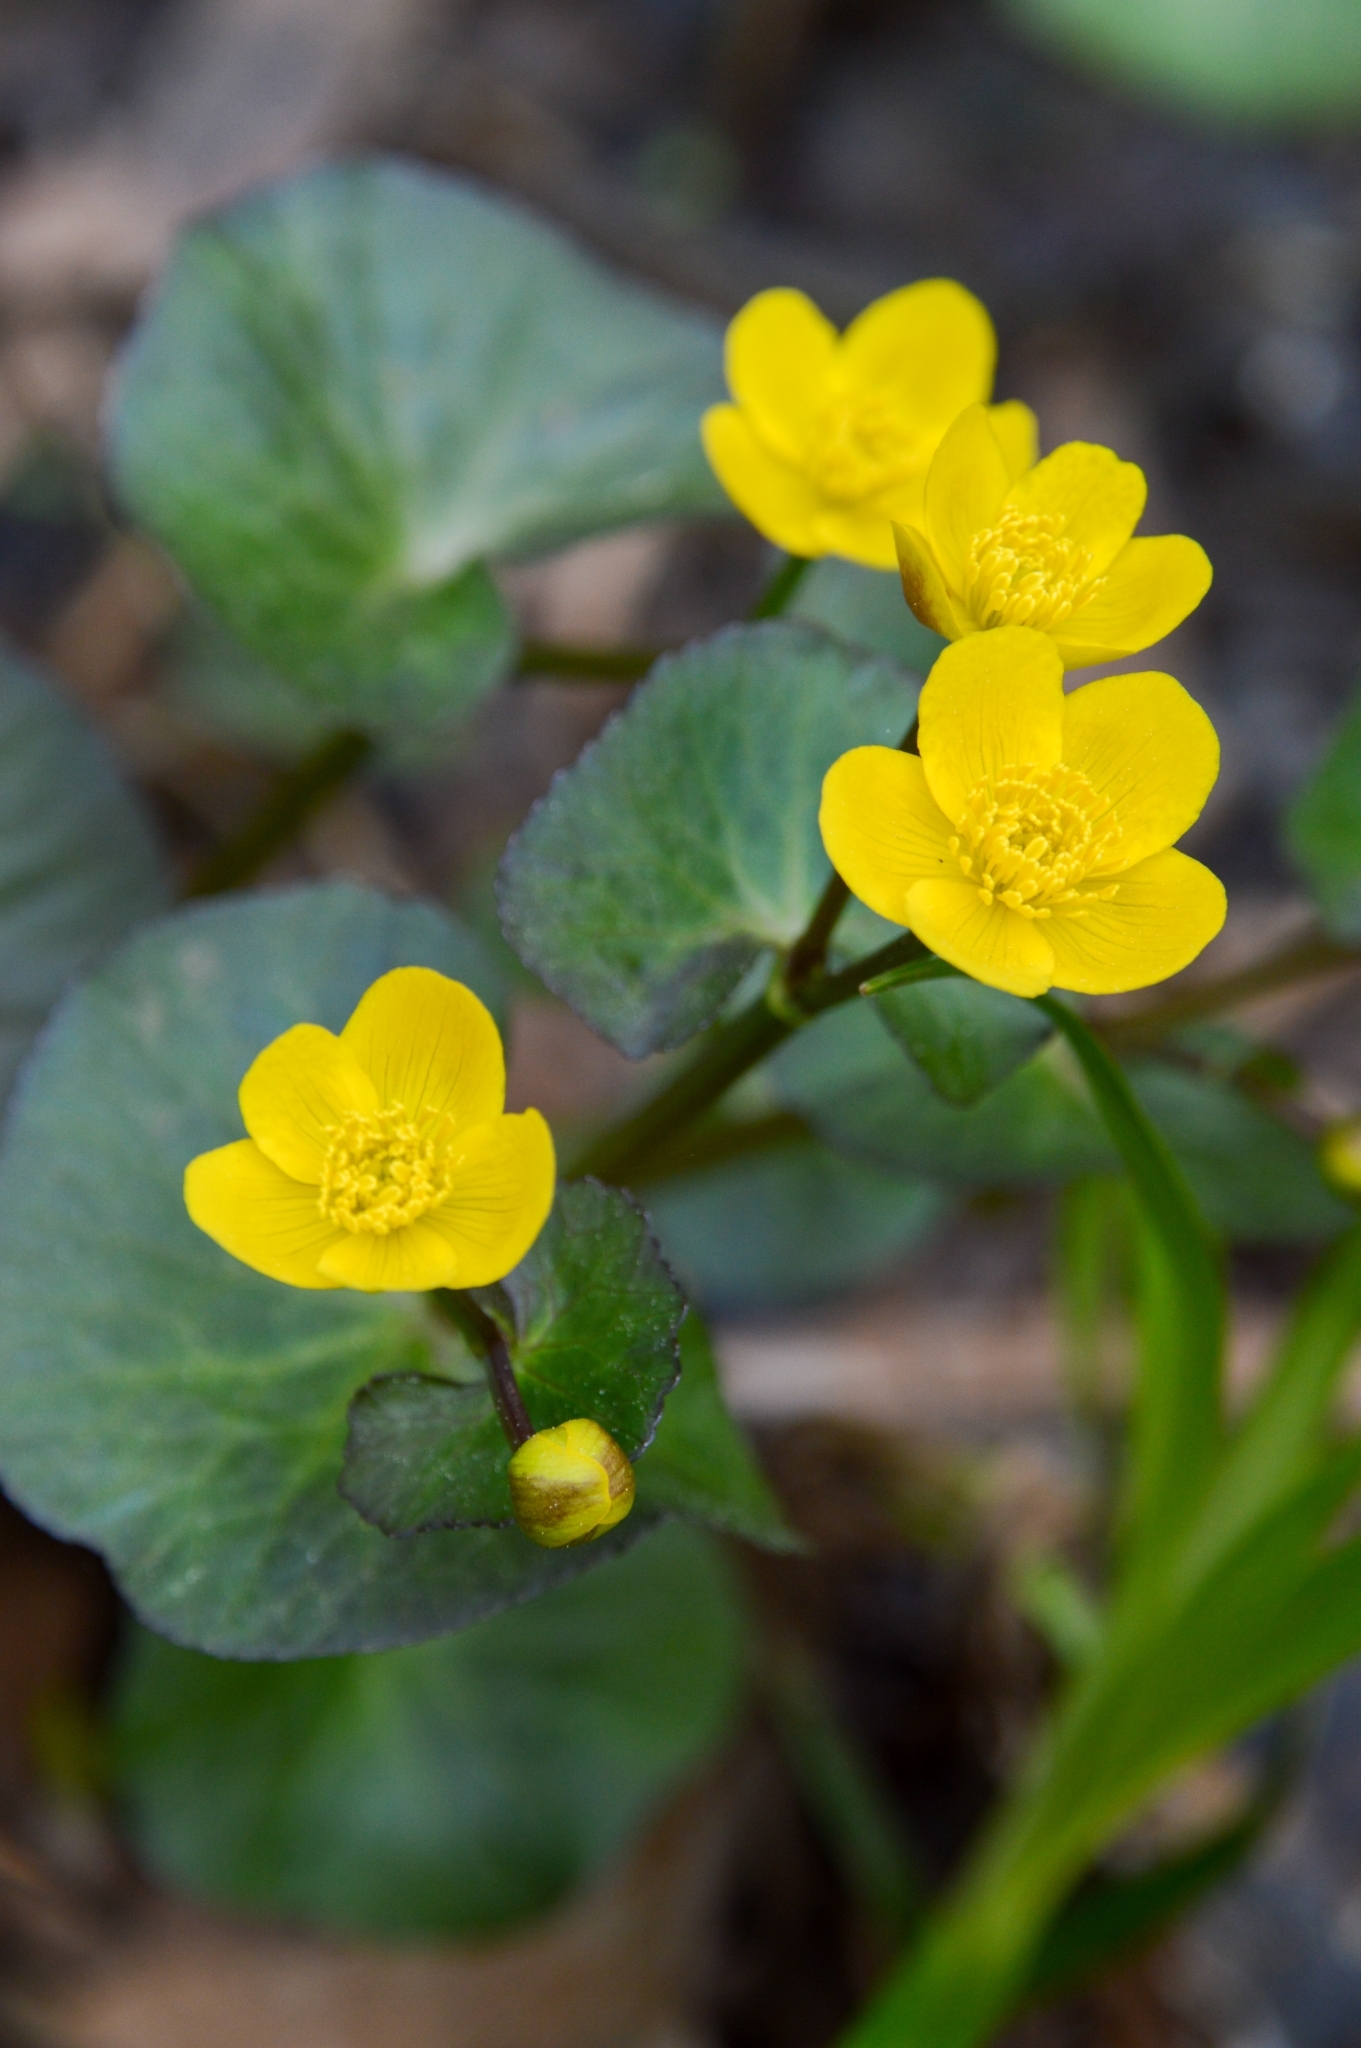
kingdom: Plantae
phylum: Tracheophyta
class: Magnoliopsida
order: Ranunculales
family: Ranunculaceae
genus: Caltha
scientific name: Caltha palustris
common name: Marsh marigold
